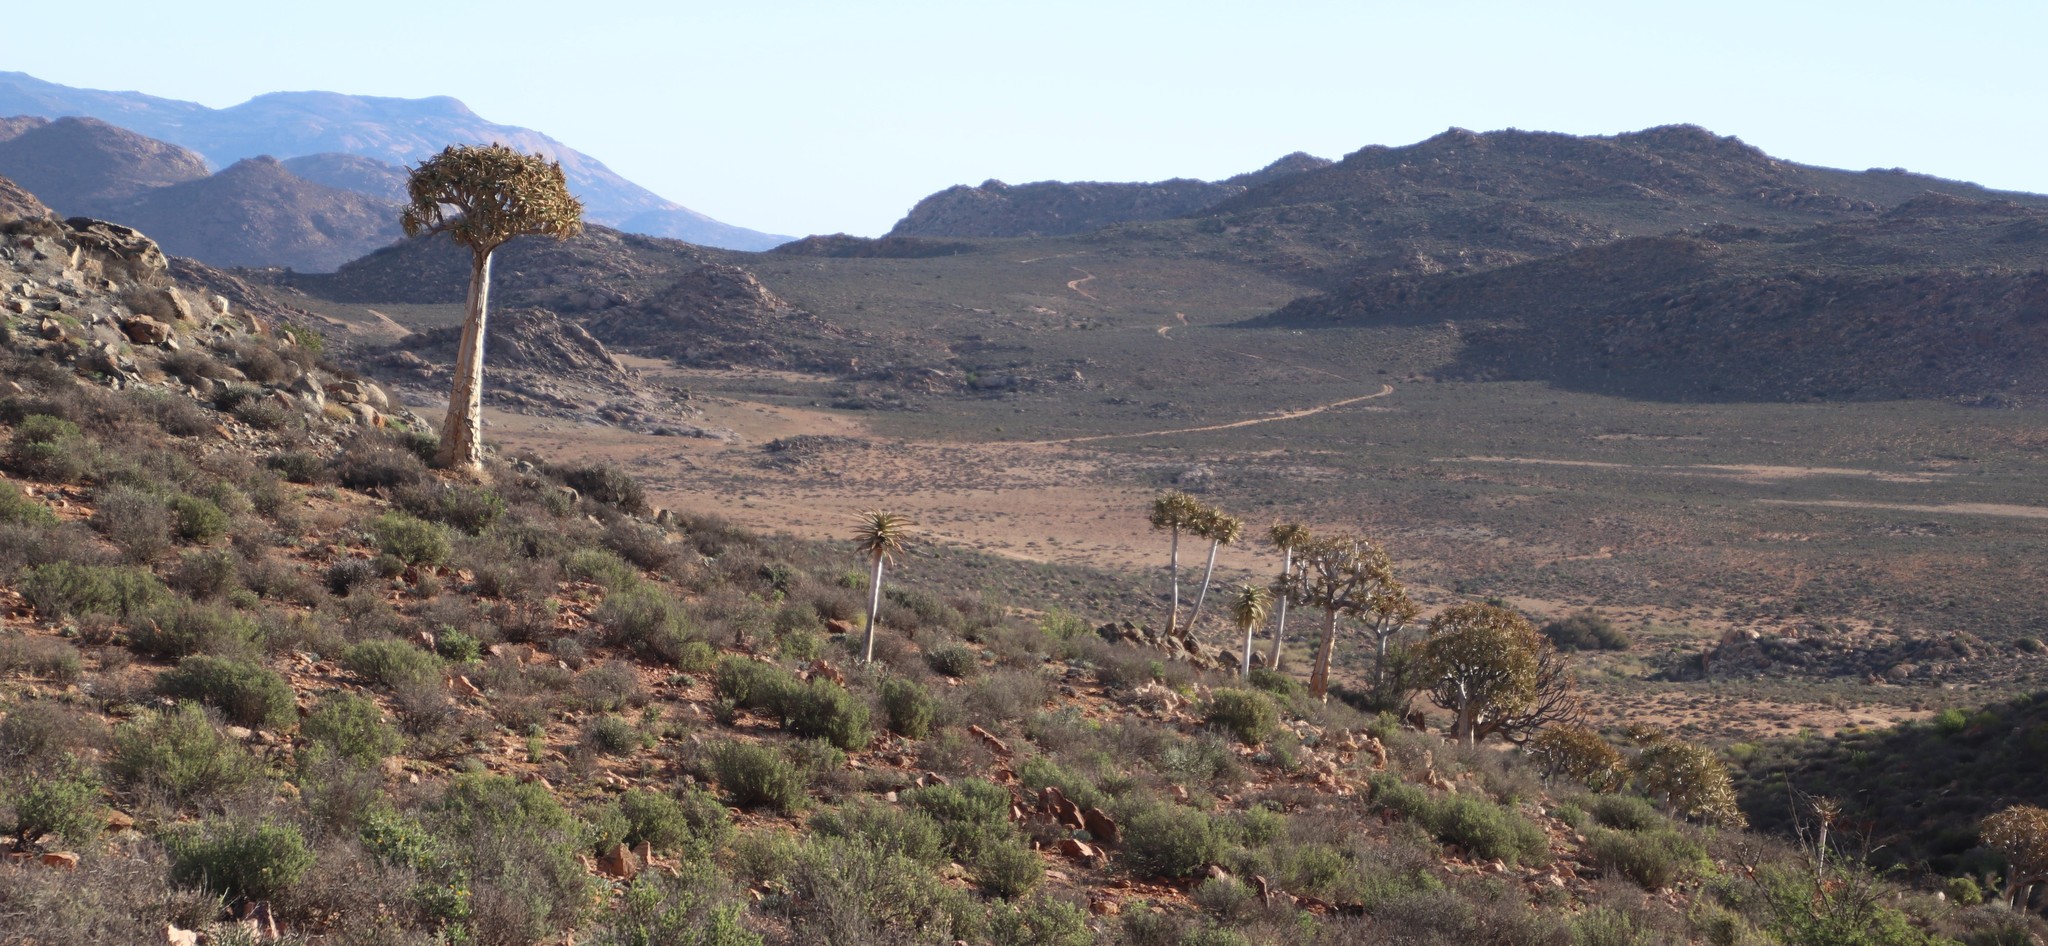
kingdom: Plantae
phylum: Tracheophyta
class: Liliopsida
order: Asparagales
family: Asphodelaceae
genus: Aloidendron
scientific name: Aloidendron dichotomum
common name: Quiver tree
